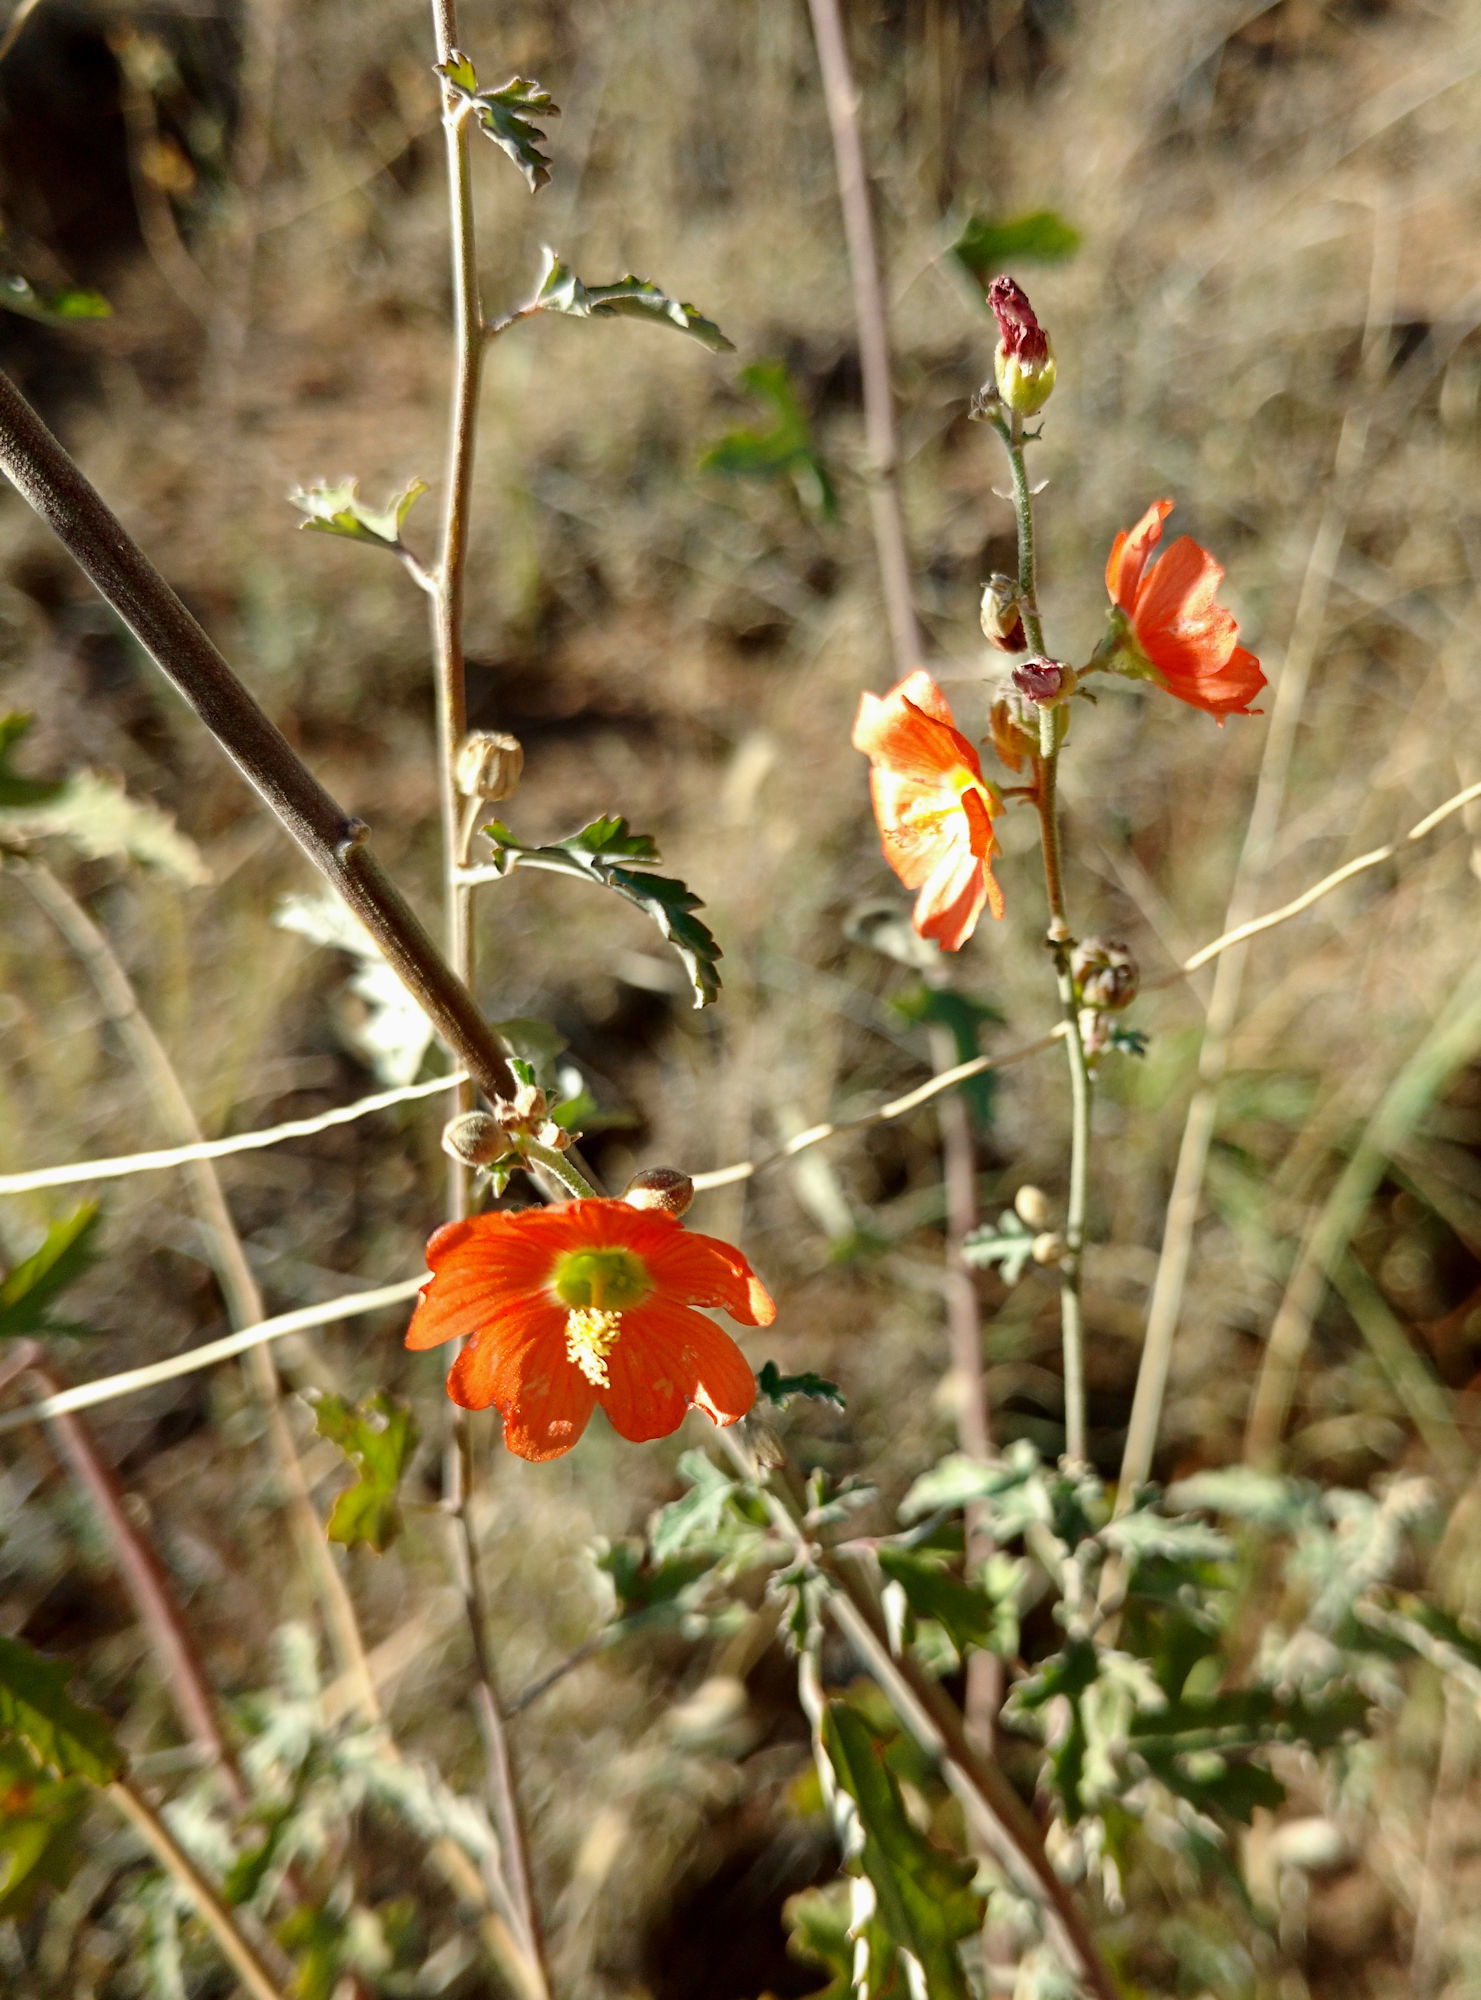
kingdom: Plantae
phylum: Tracheophyta
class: Magnoliopsida
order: Malvales
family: Malvaceae
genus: Sphaeralcea
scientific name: Sphaeralcea fendleri
